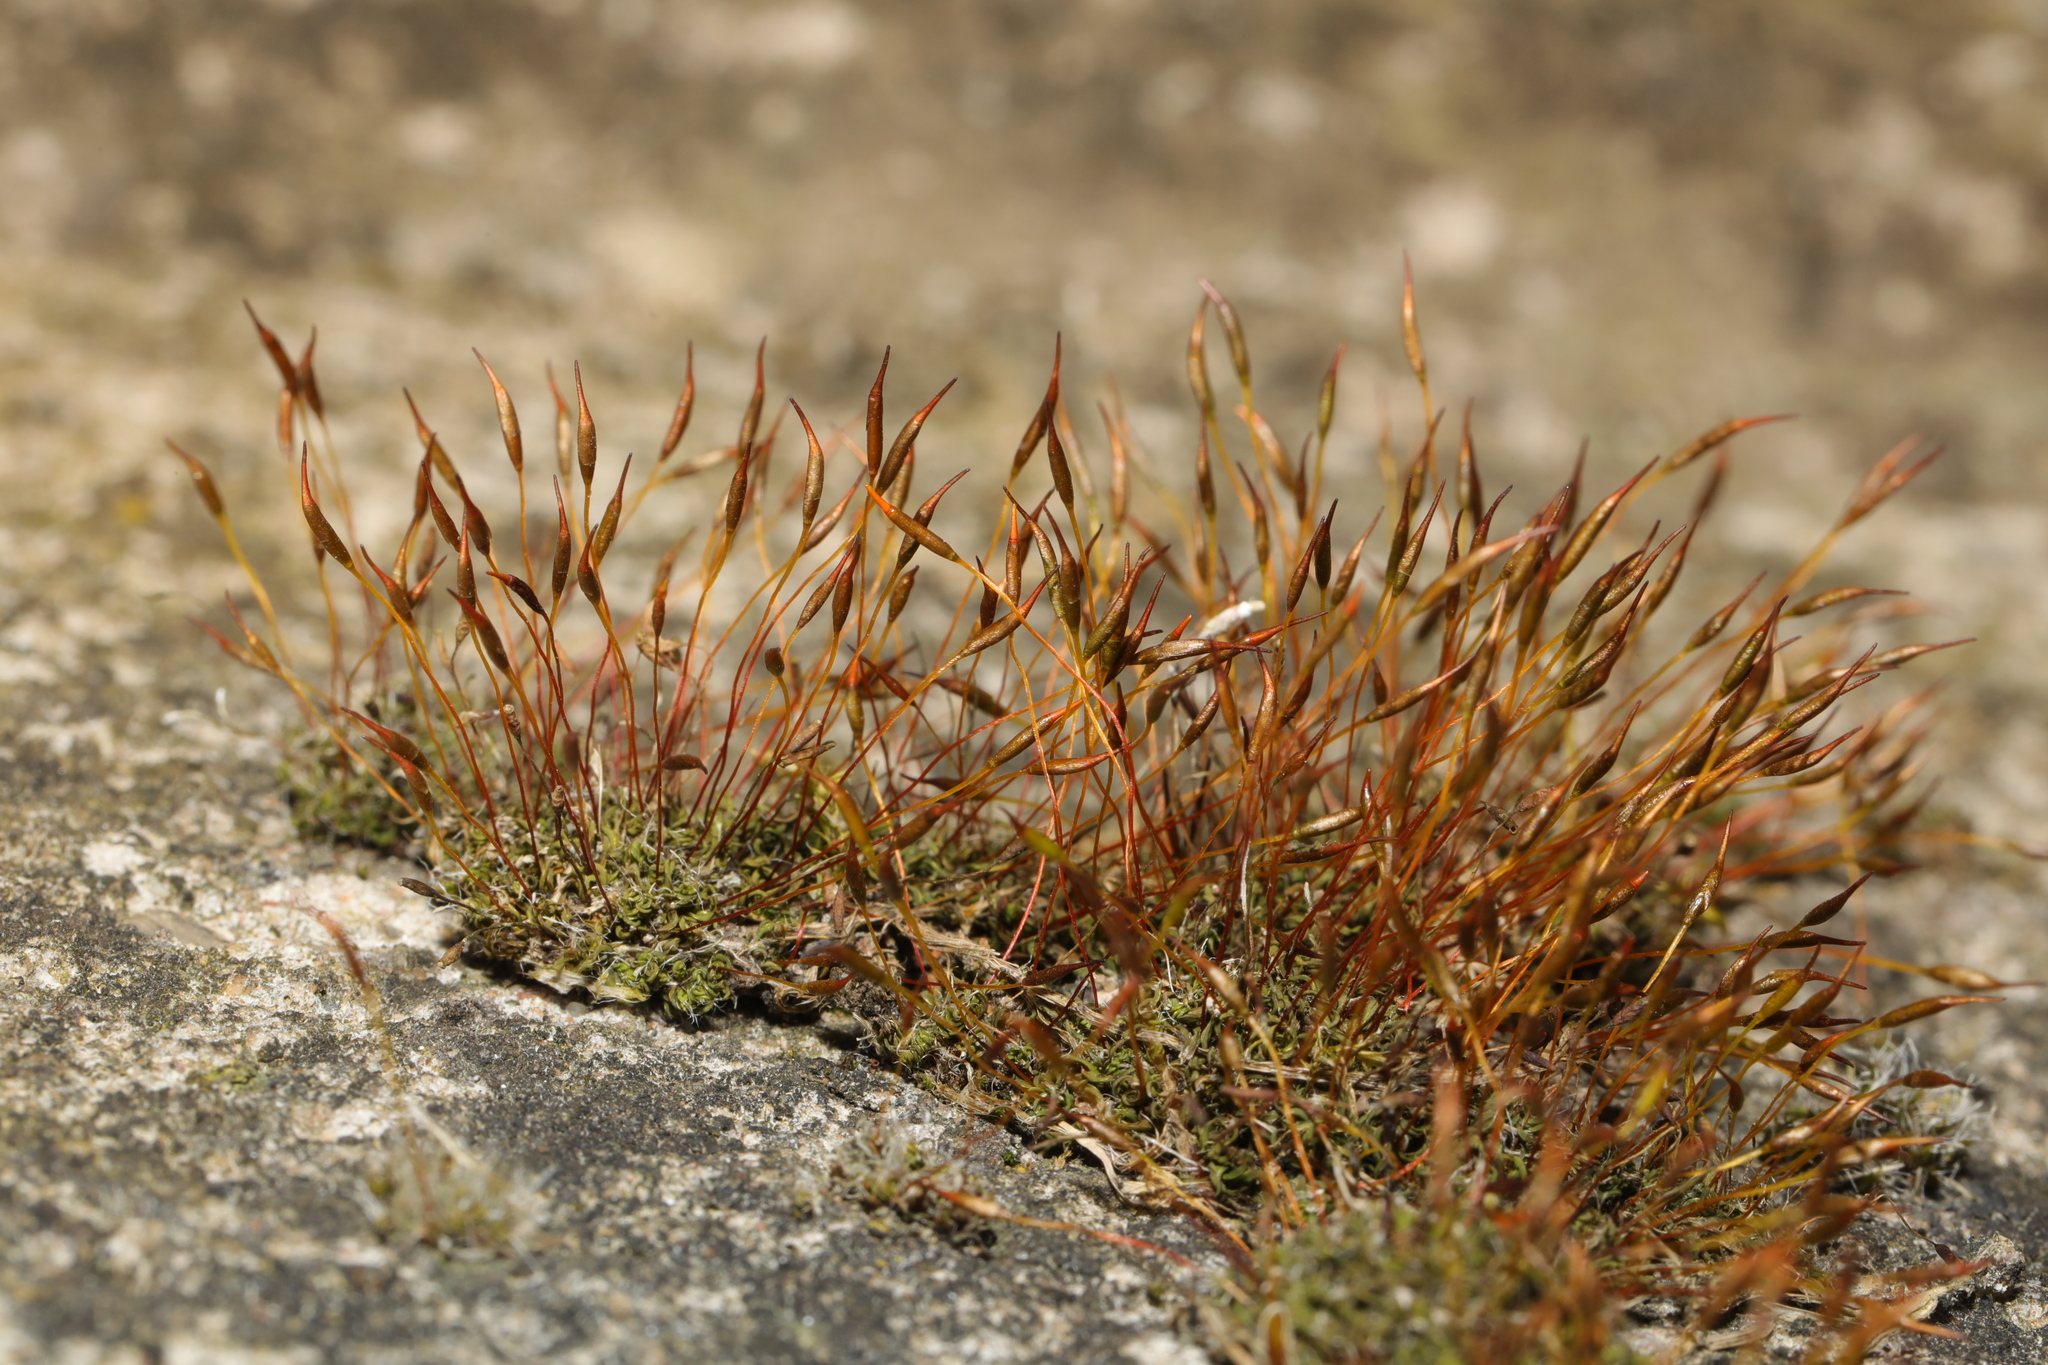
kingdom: Plantae
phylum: Bryophyta
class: Bryopsida
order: Pottiales
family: Pottiaceae
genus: Tortula
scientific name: Tortula muralis
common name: Wall screw-moss
